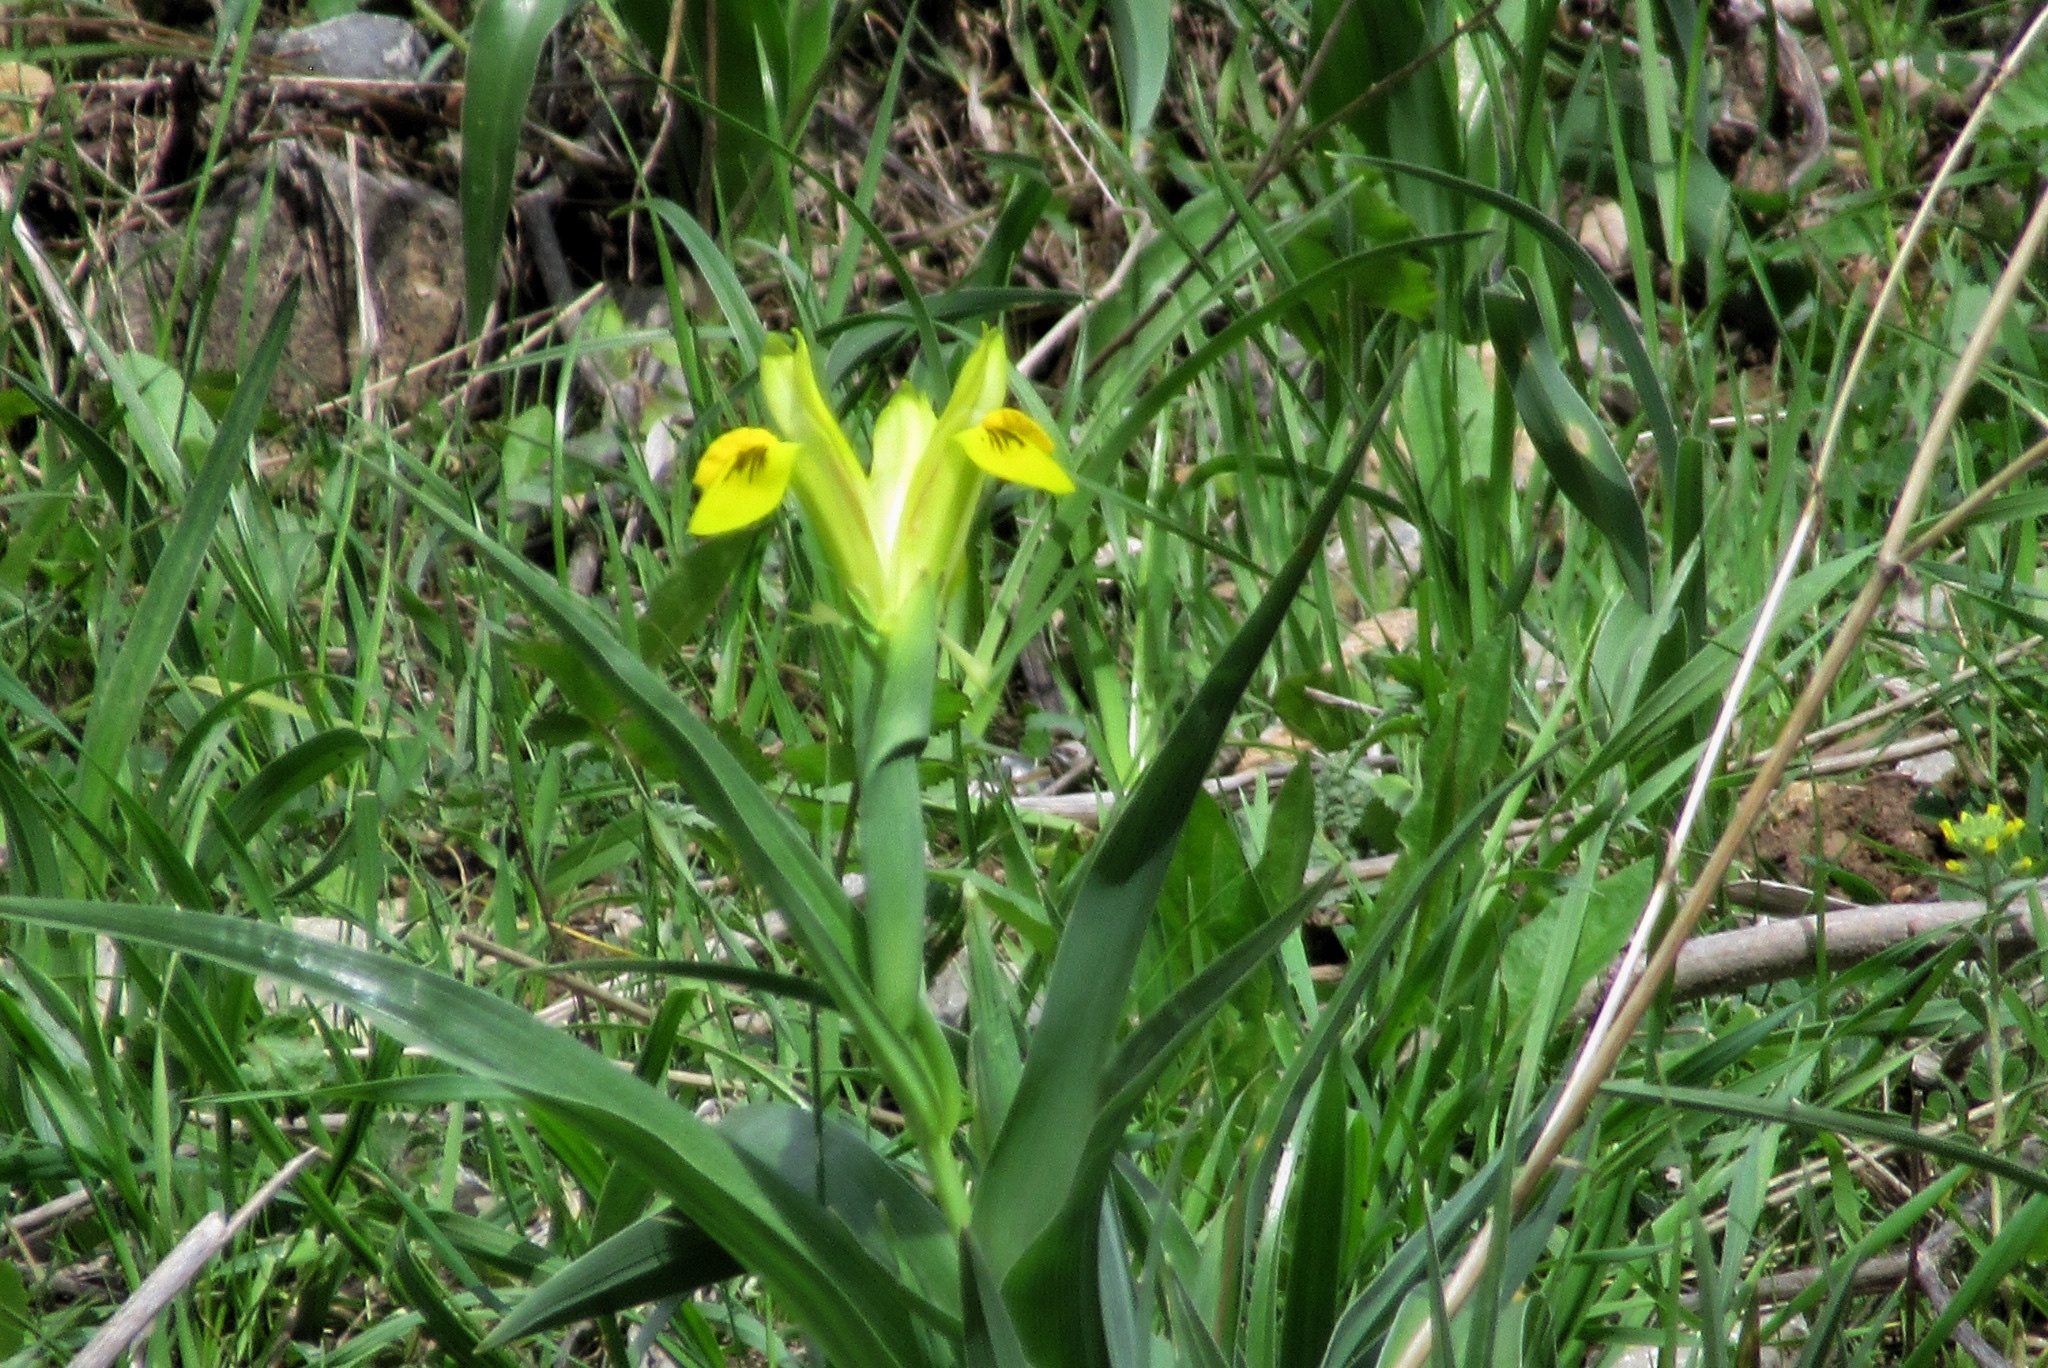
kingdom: Plantae
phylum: Tracheophyta
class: Liliopsida
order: Asparagales
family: Iridaceae
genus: Iris
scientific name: Iris bucharica
